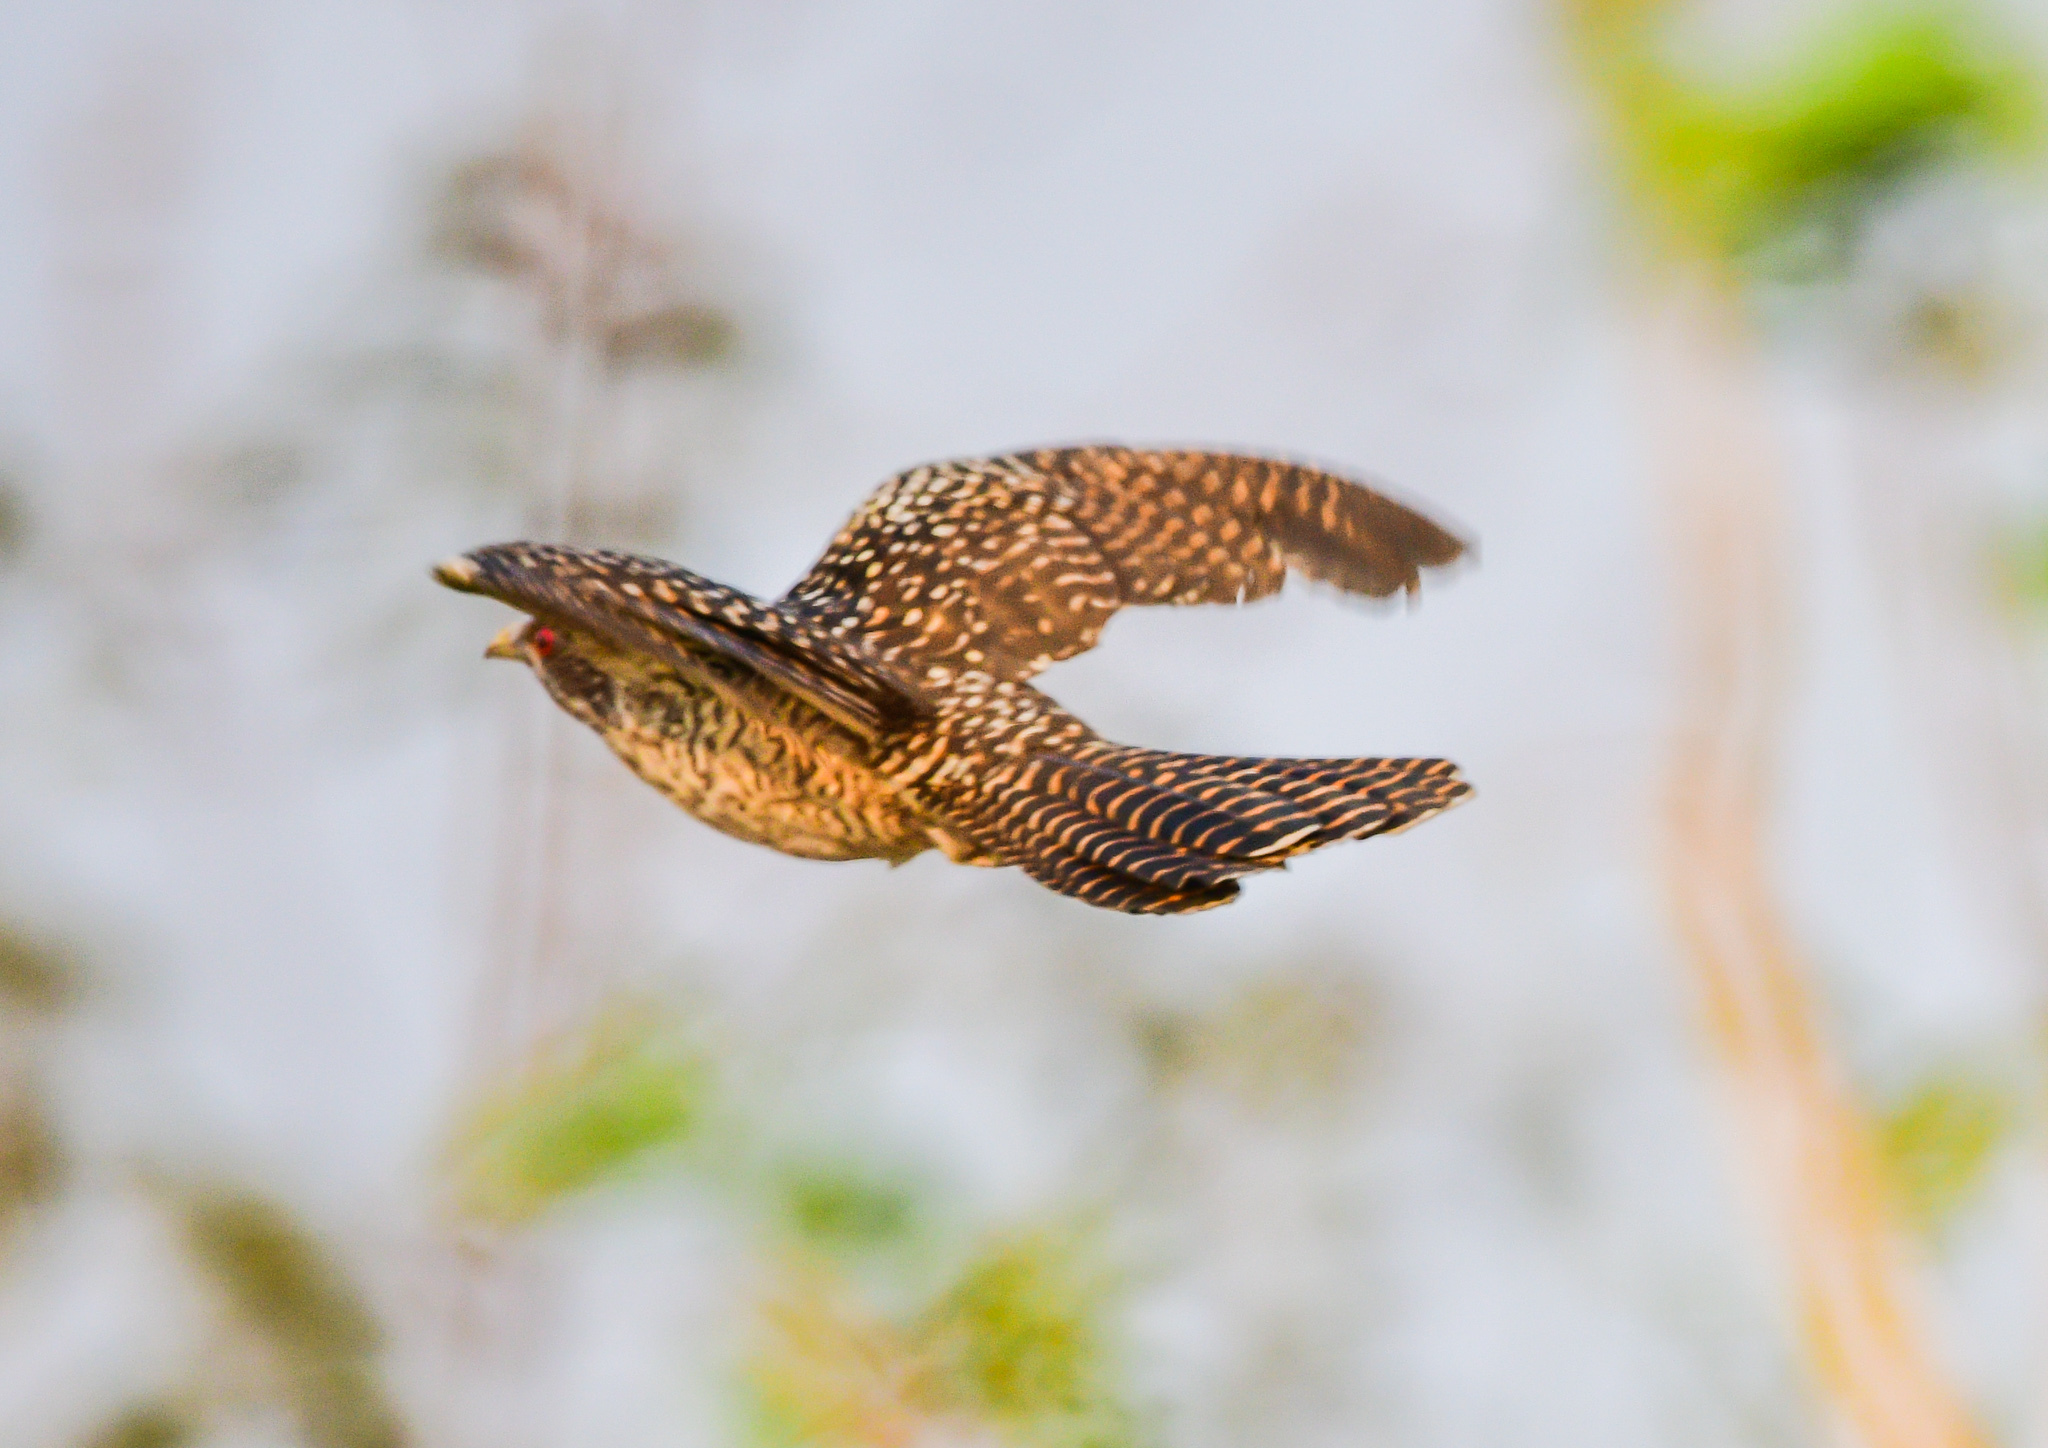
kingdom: Animalia
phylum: Chordata
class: Aves
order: Cuculiformes
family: Cuculidae
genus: Eudynamys
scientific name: Eudynamys scolopaceus
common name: Asian koel
